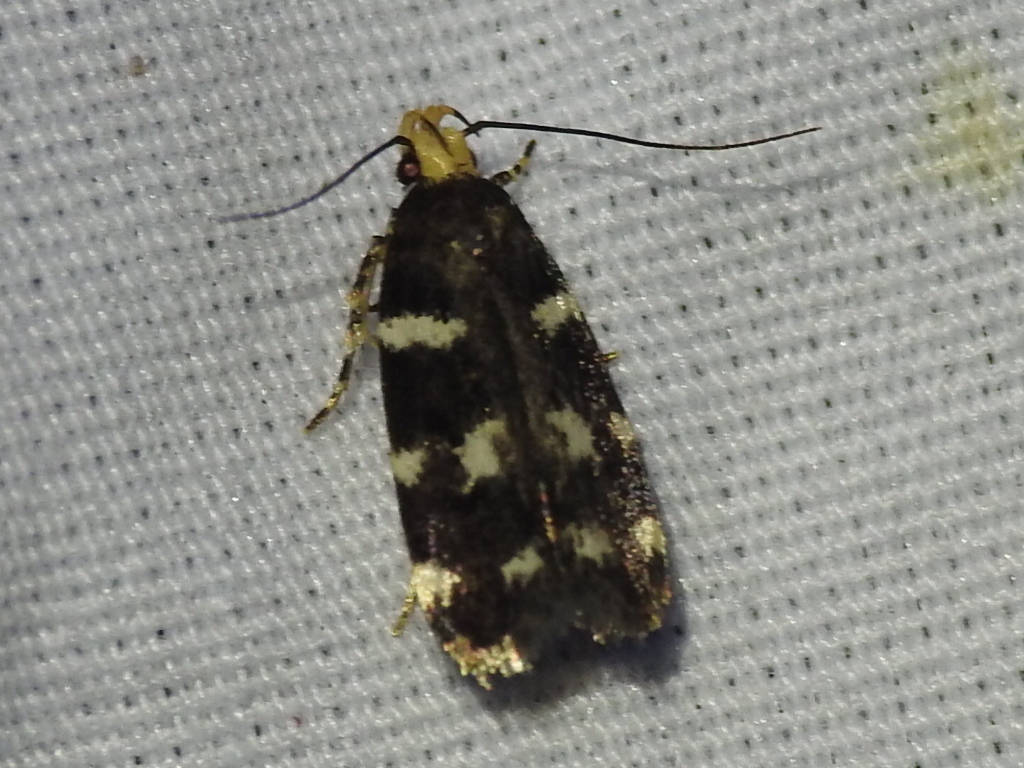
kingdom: Animalia
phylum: Arthropoda
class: Insecta
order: Lepidoptera
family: Gelechiidae
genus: Fascista
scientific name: Fascista quinella
